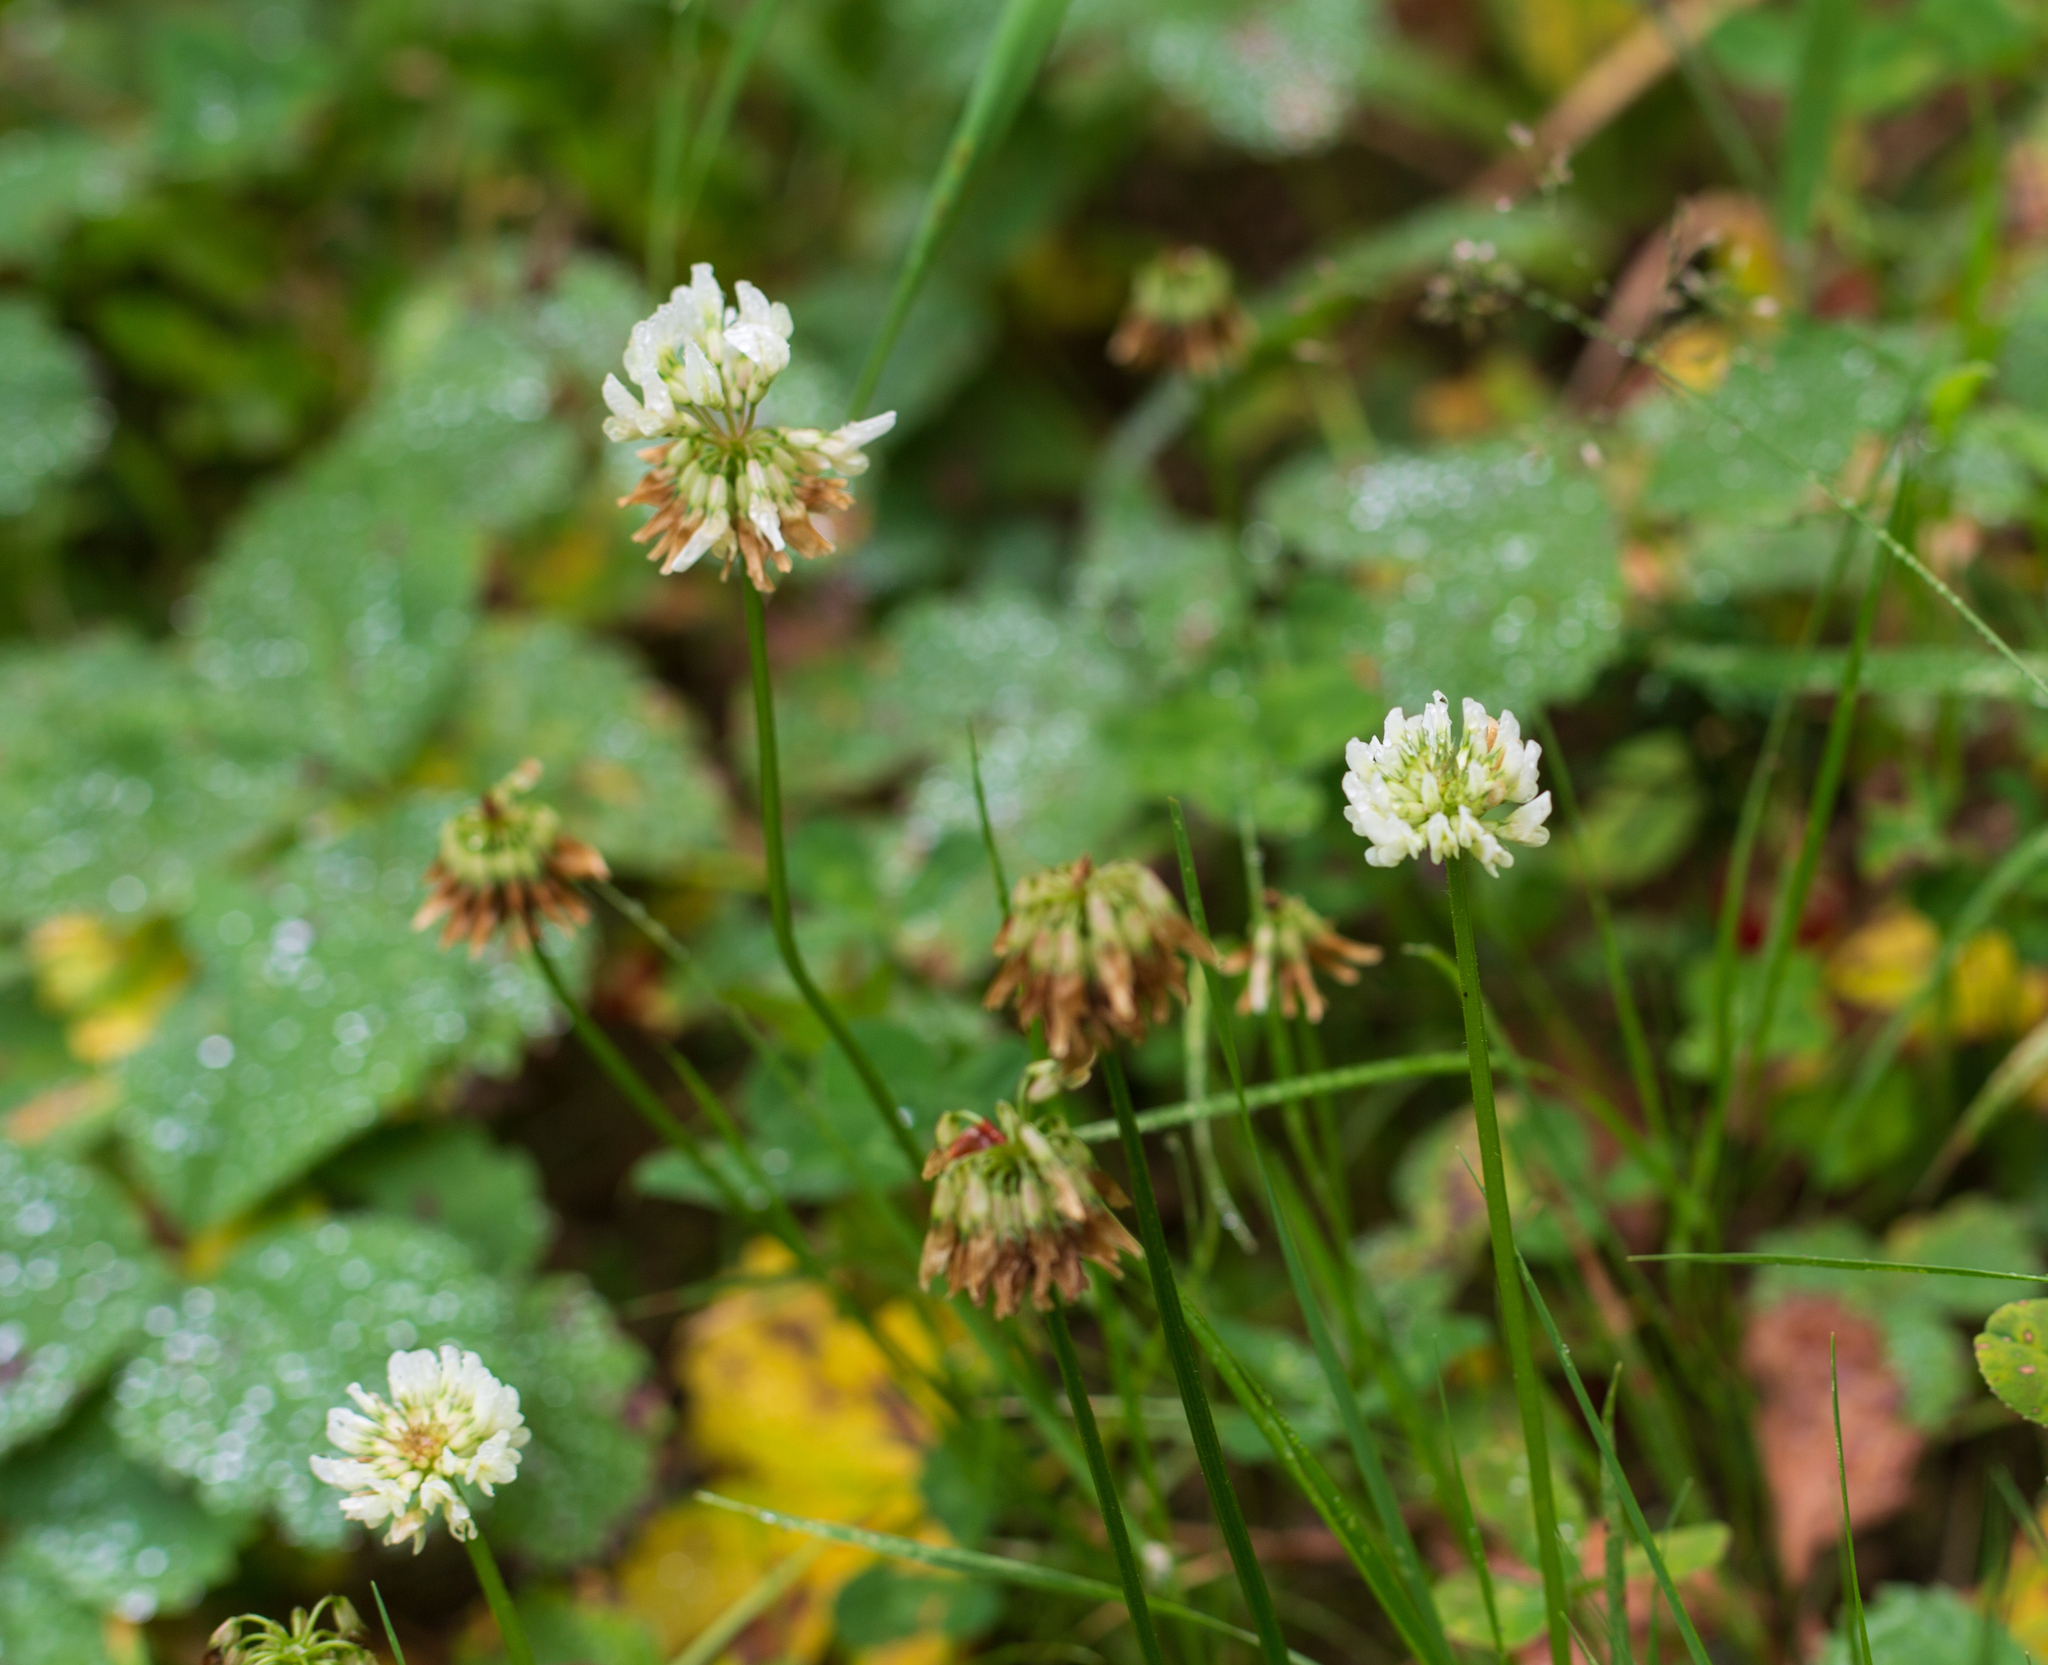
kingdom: Plantae
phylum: Tracheophyta
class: Magnoliopsida
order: Fabales
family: Fabaceae
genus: Trifolium
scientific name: Trifolium repens
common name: White clover
